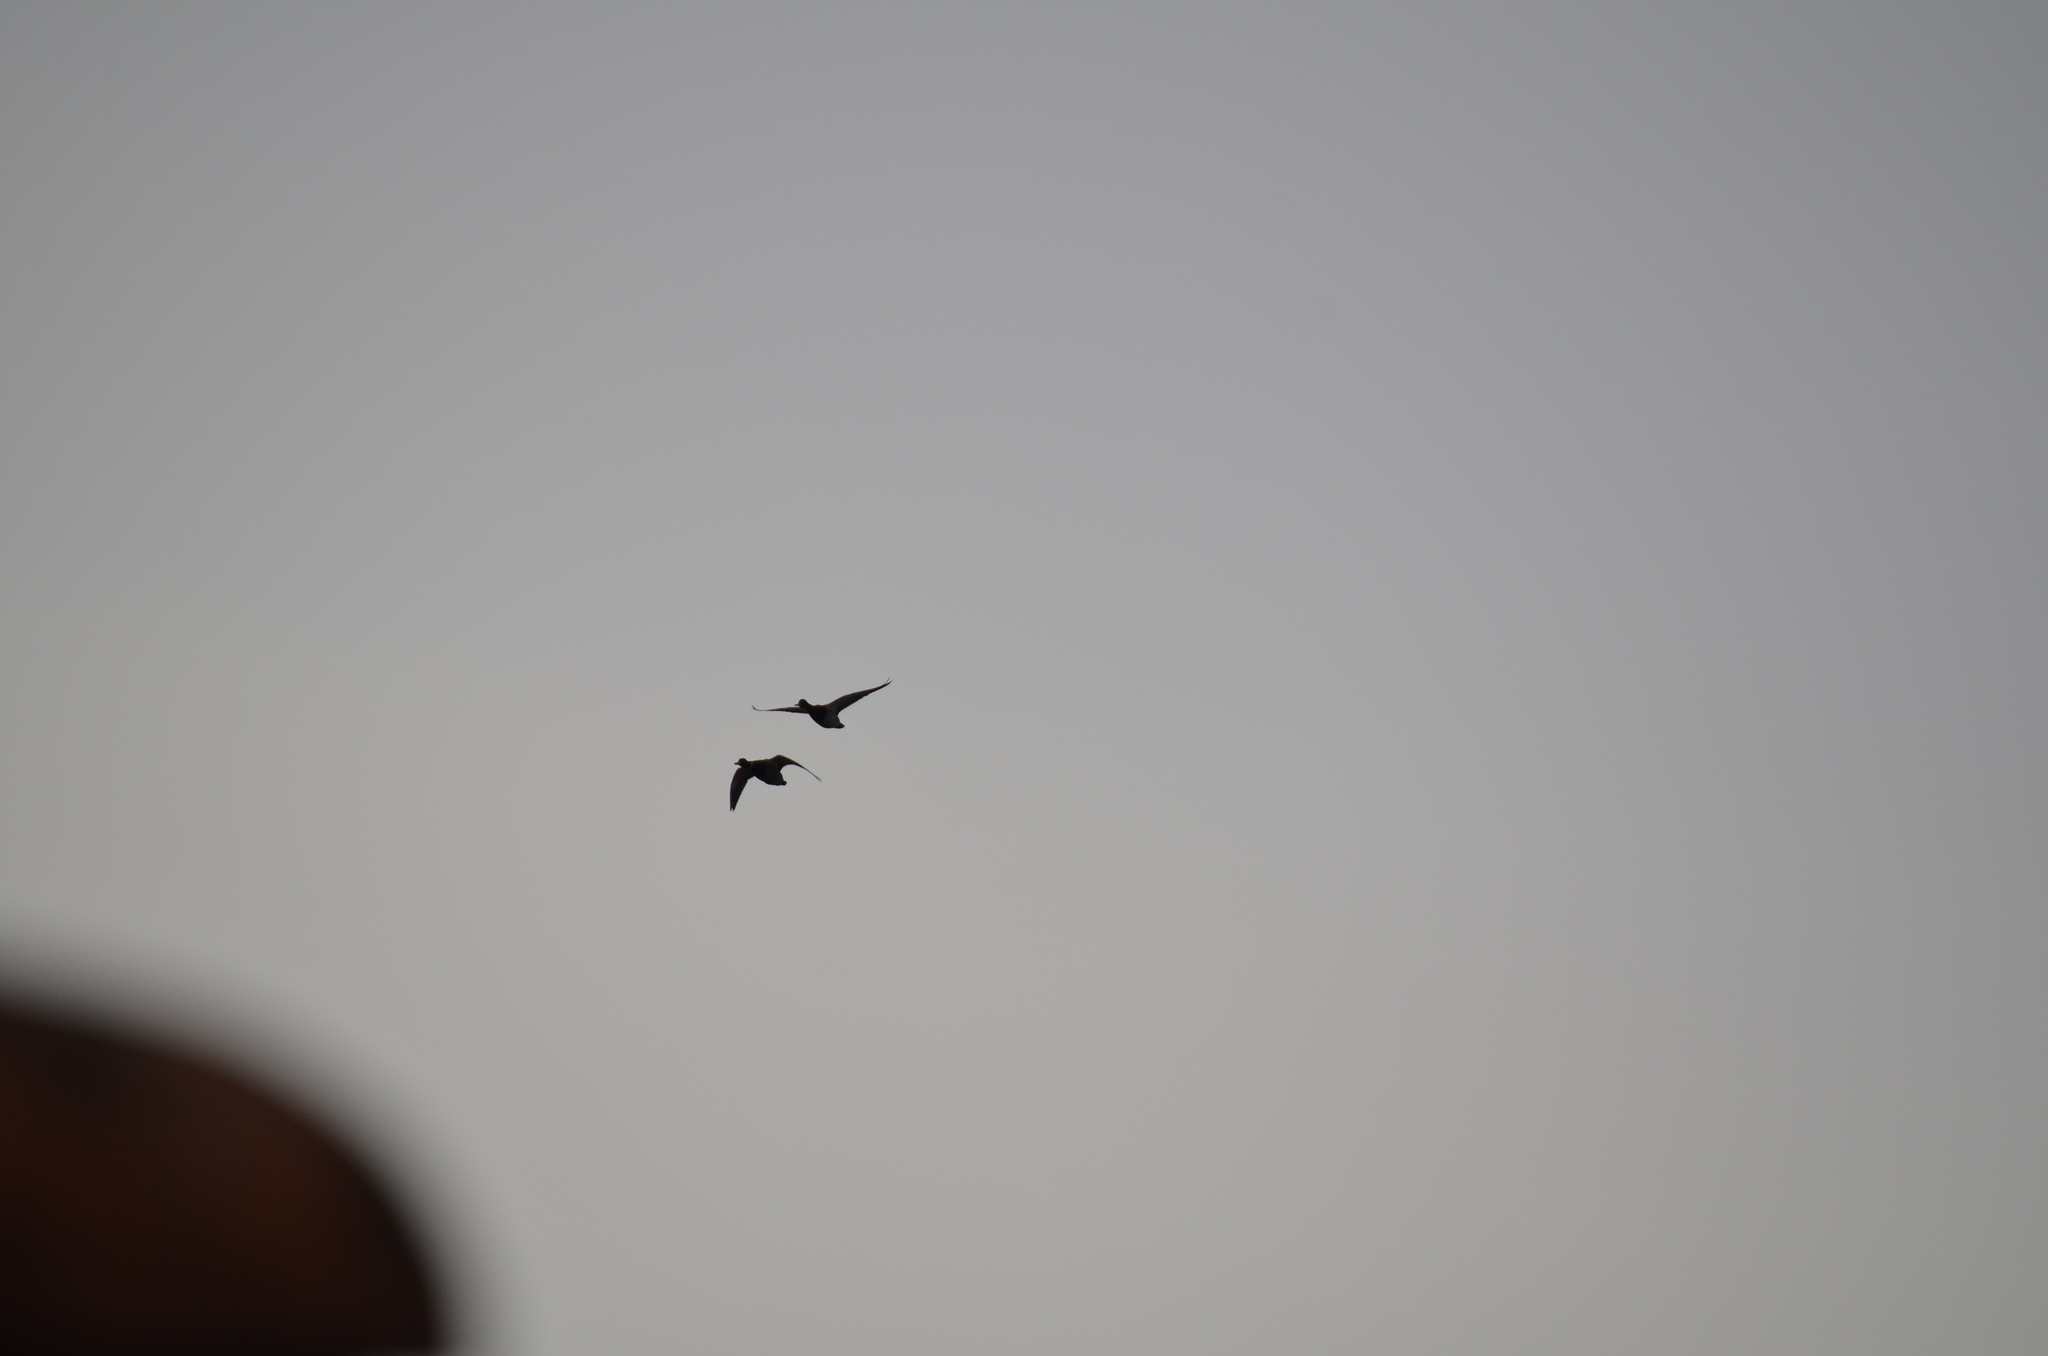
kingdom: Animalia
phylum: Chordata
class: Aves
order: Anseriformes
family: Anatidae
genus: Anas
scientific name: Anas platyrhynchos
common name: Mallard
